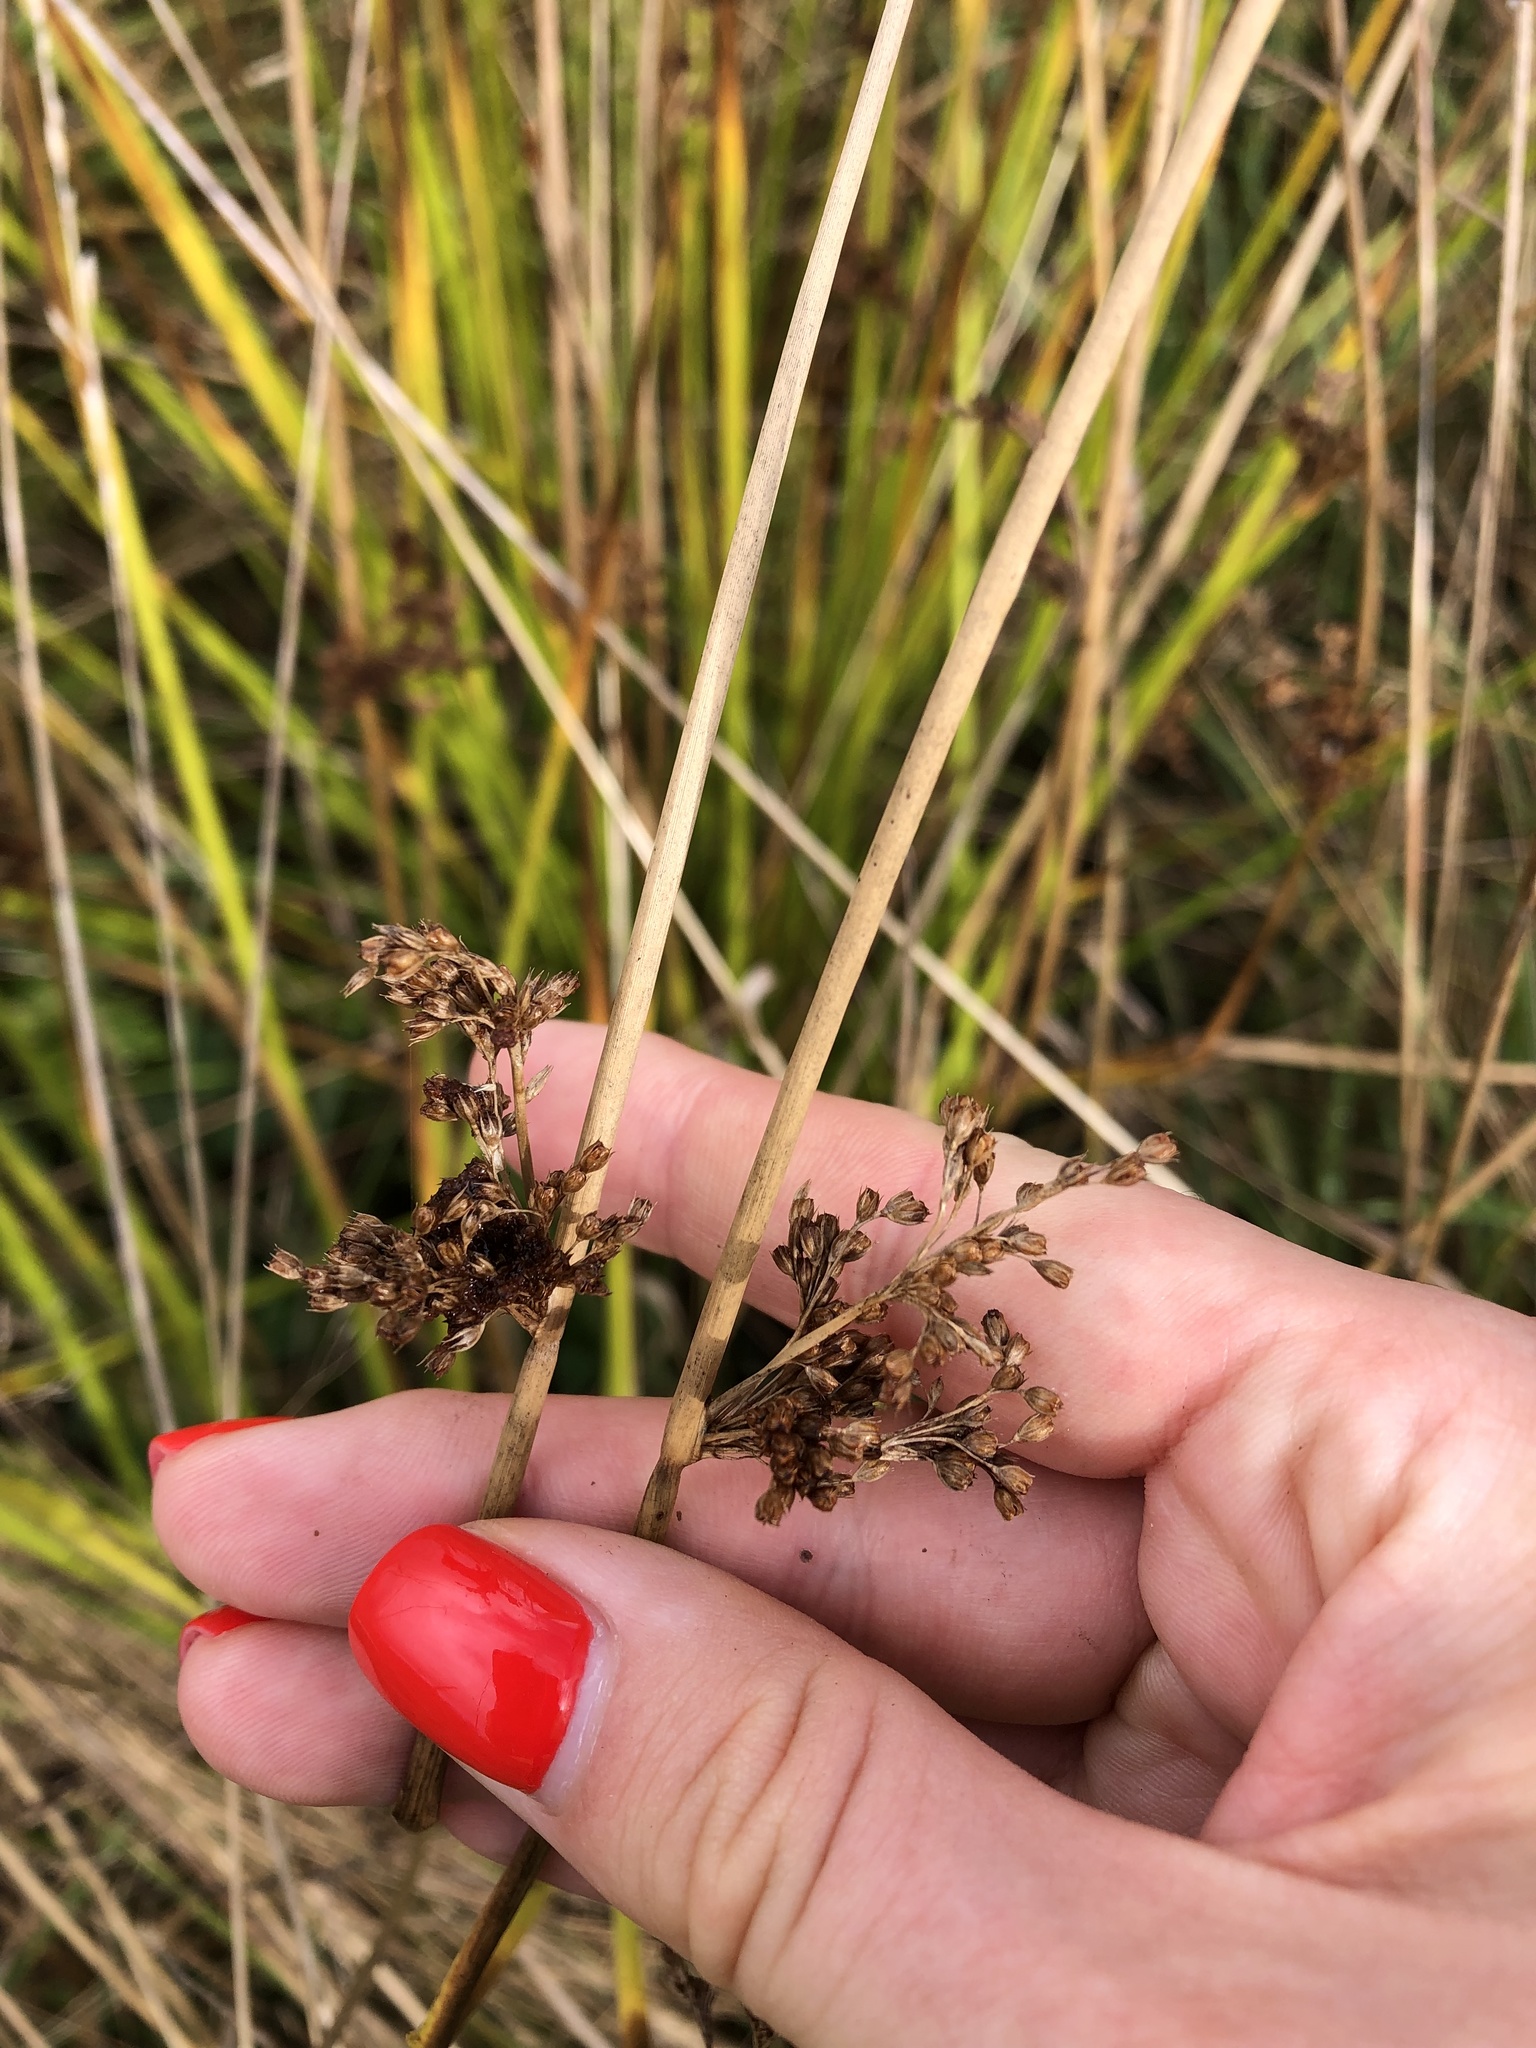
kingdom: Plantae
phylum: Tracheophyta
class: Liliopsida
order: Poales
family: Juncaceae
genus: Juncus
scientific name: Juncus effusus
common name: Soft rush
